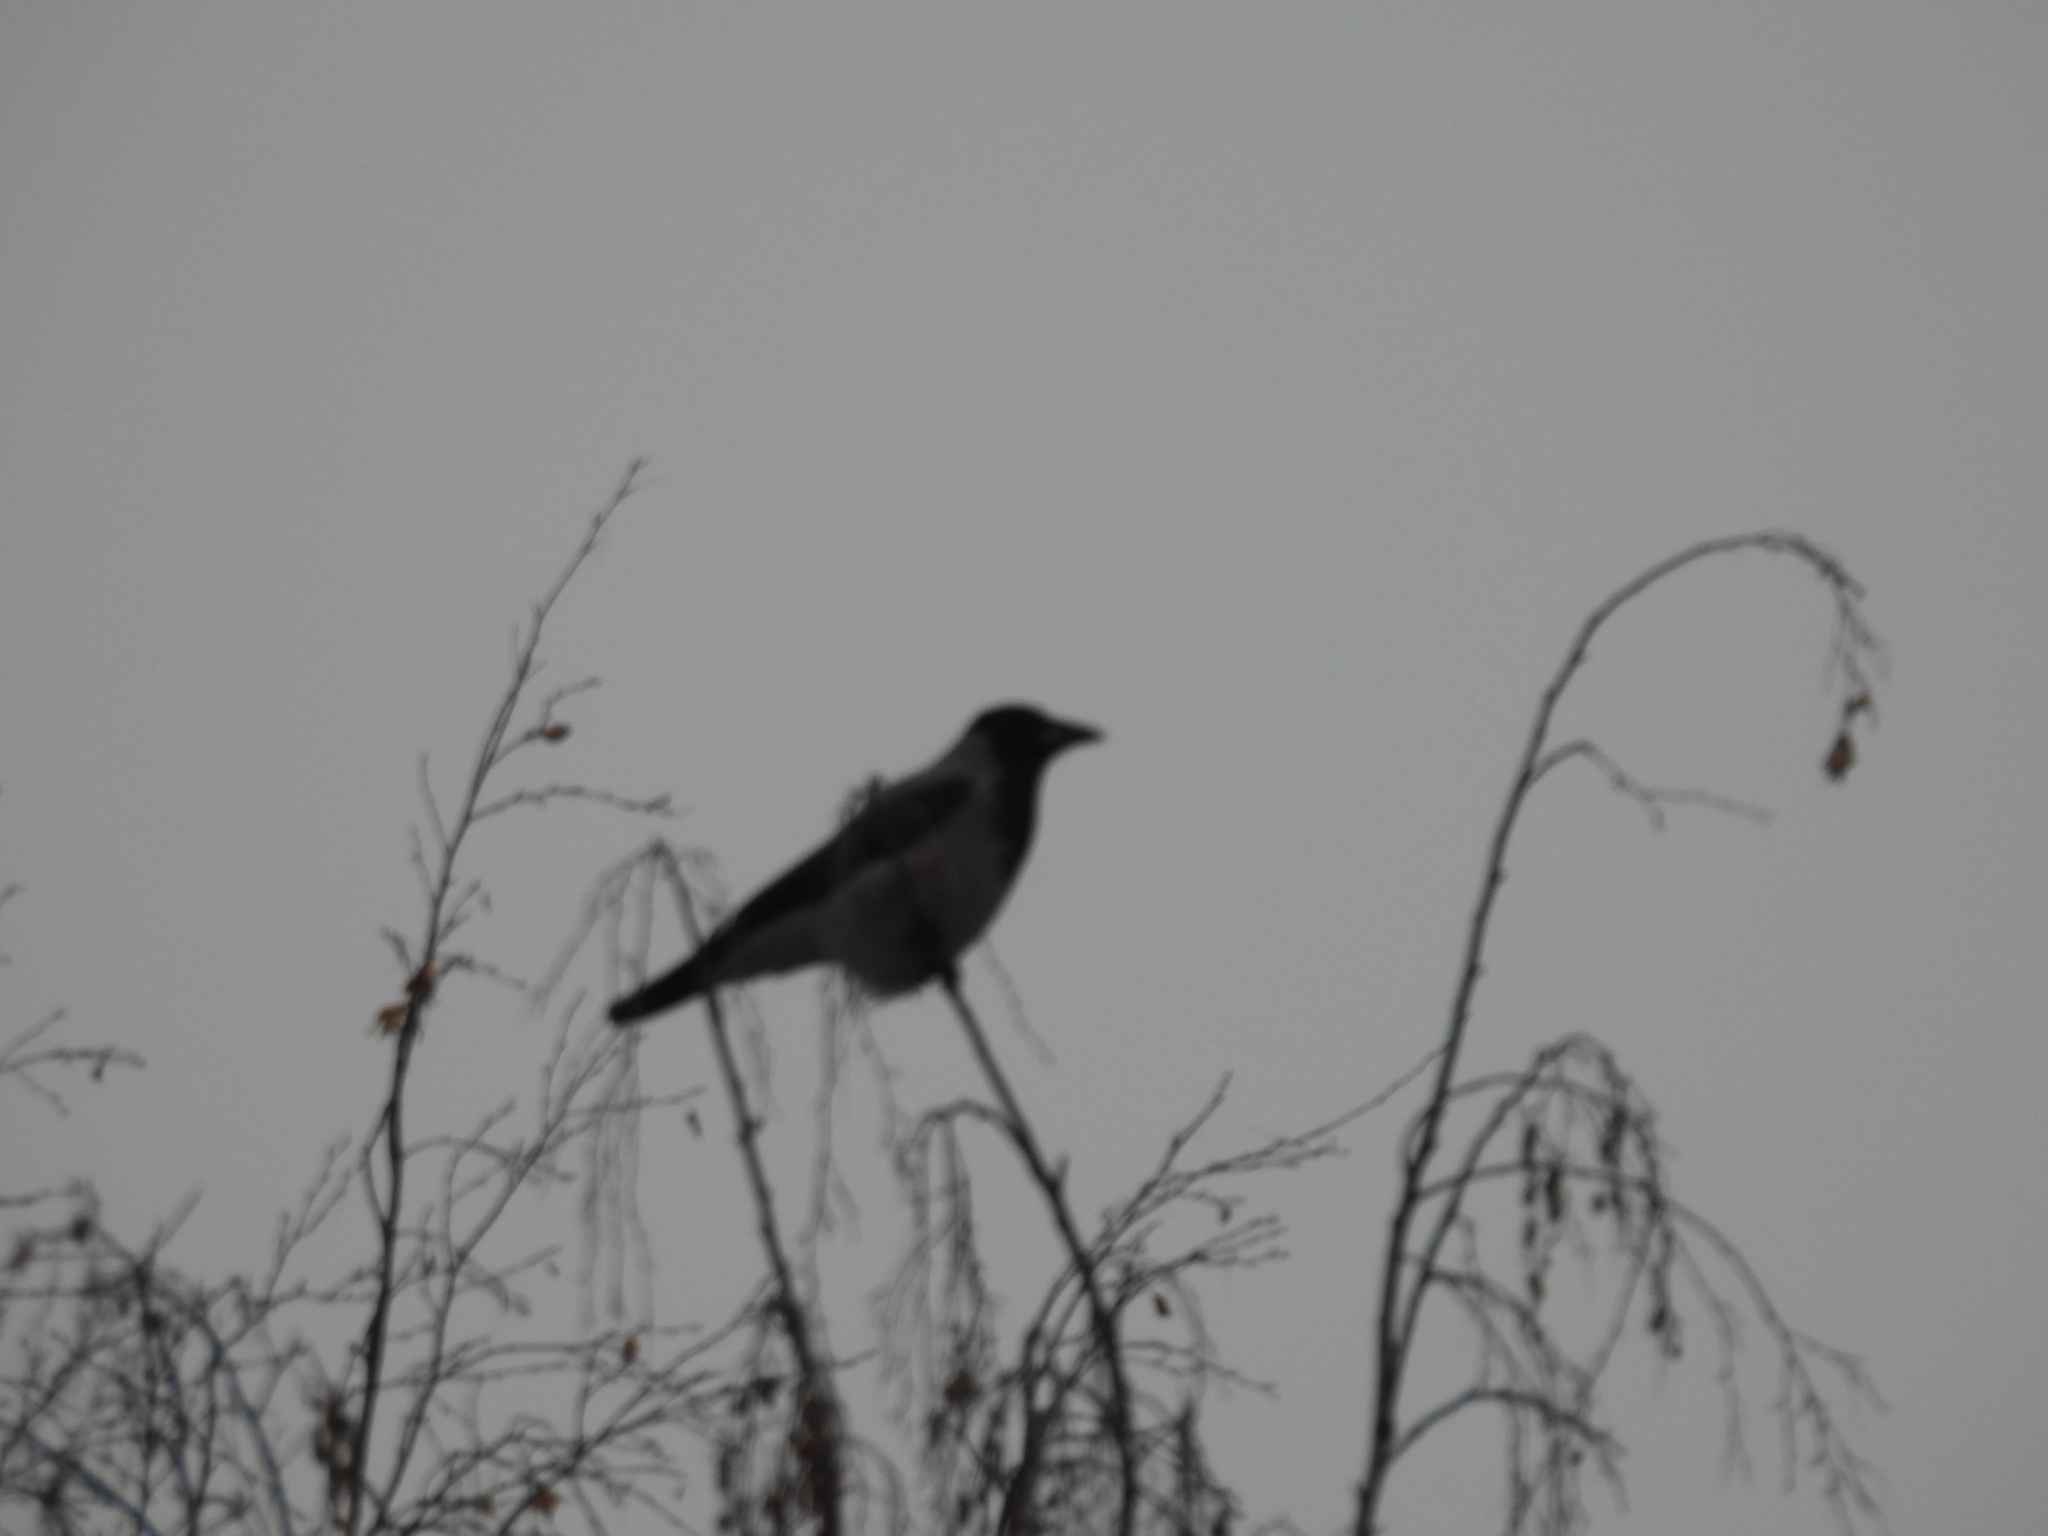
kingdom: Animalia
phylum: Chordata
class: Aves
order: Passeriformes
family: Corvidae
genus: Corvus
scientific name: Corvus cornix
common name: Hooded crow
